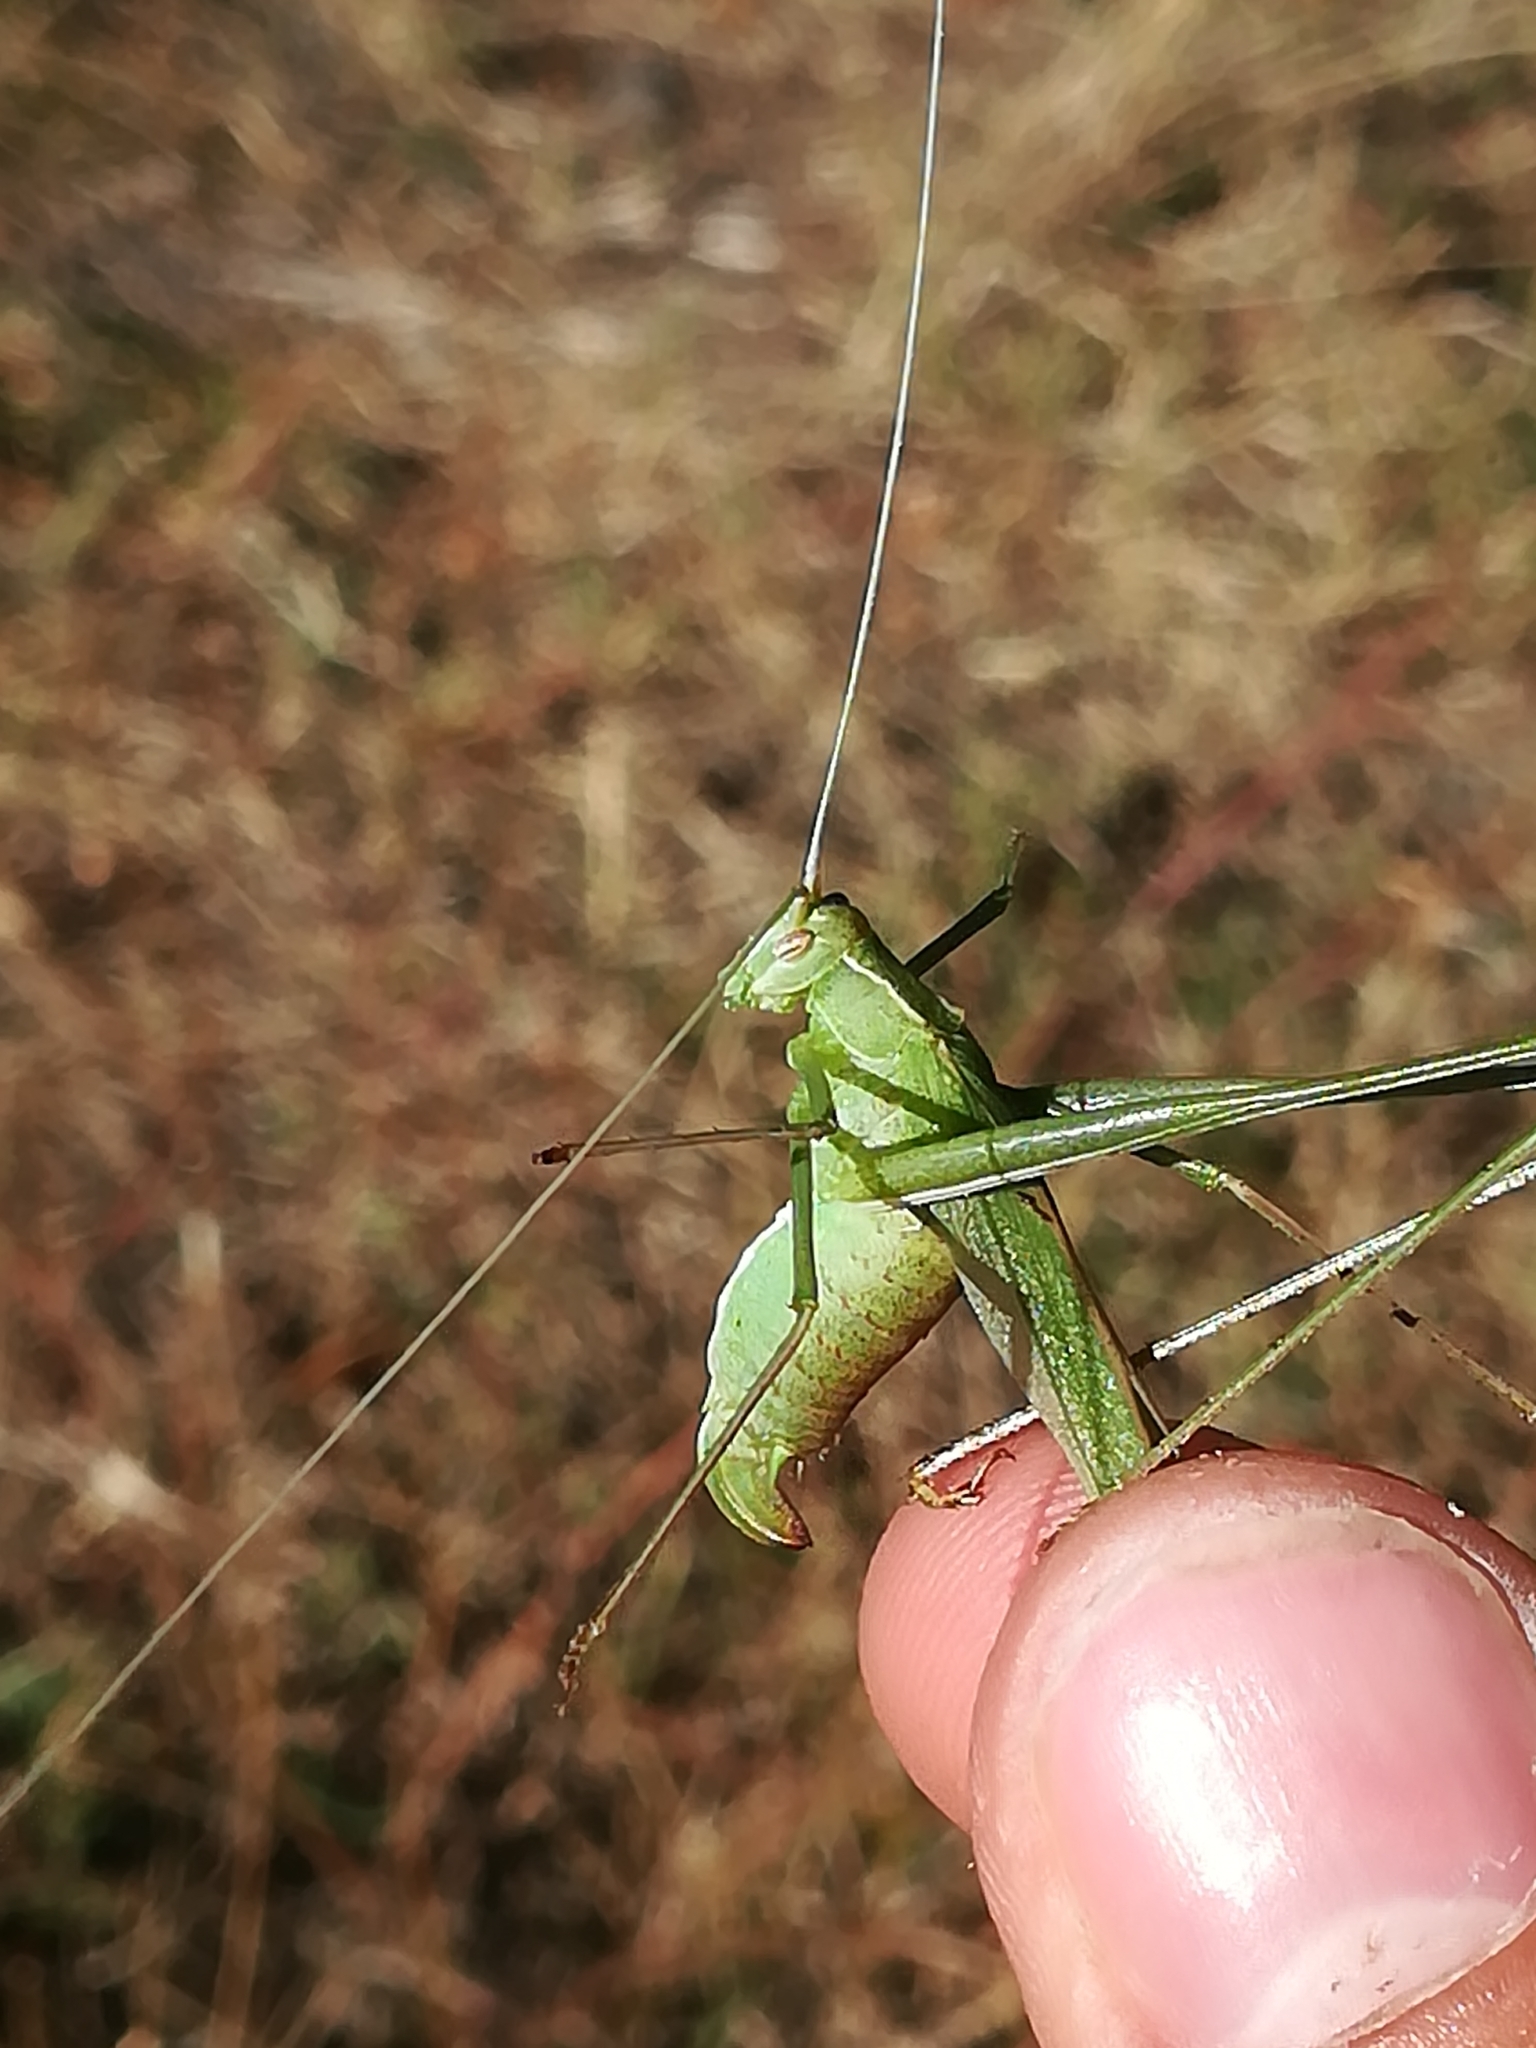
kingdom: Animalia
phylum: Arthropoda
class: Insecta
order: Orthoptera
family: Tettigoniidae
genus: Tylopsis
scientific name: Tylopsis lilifolia
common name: Lily bush-cricket
